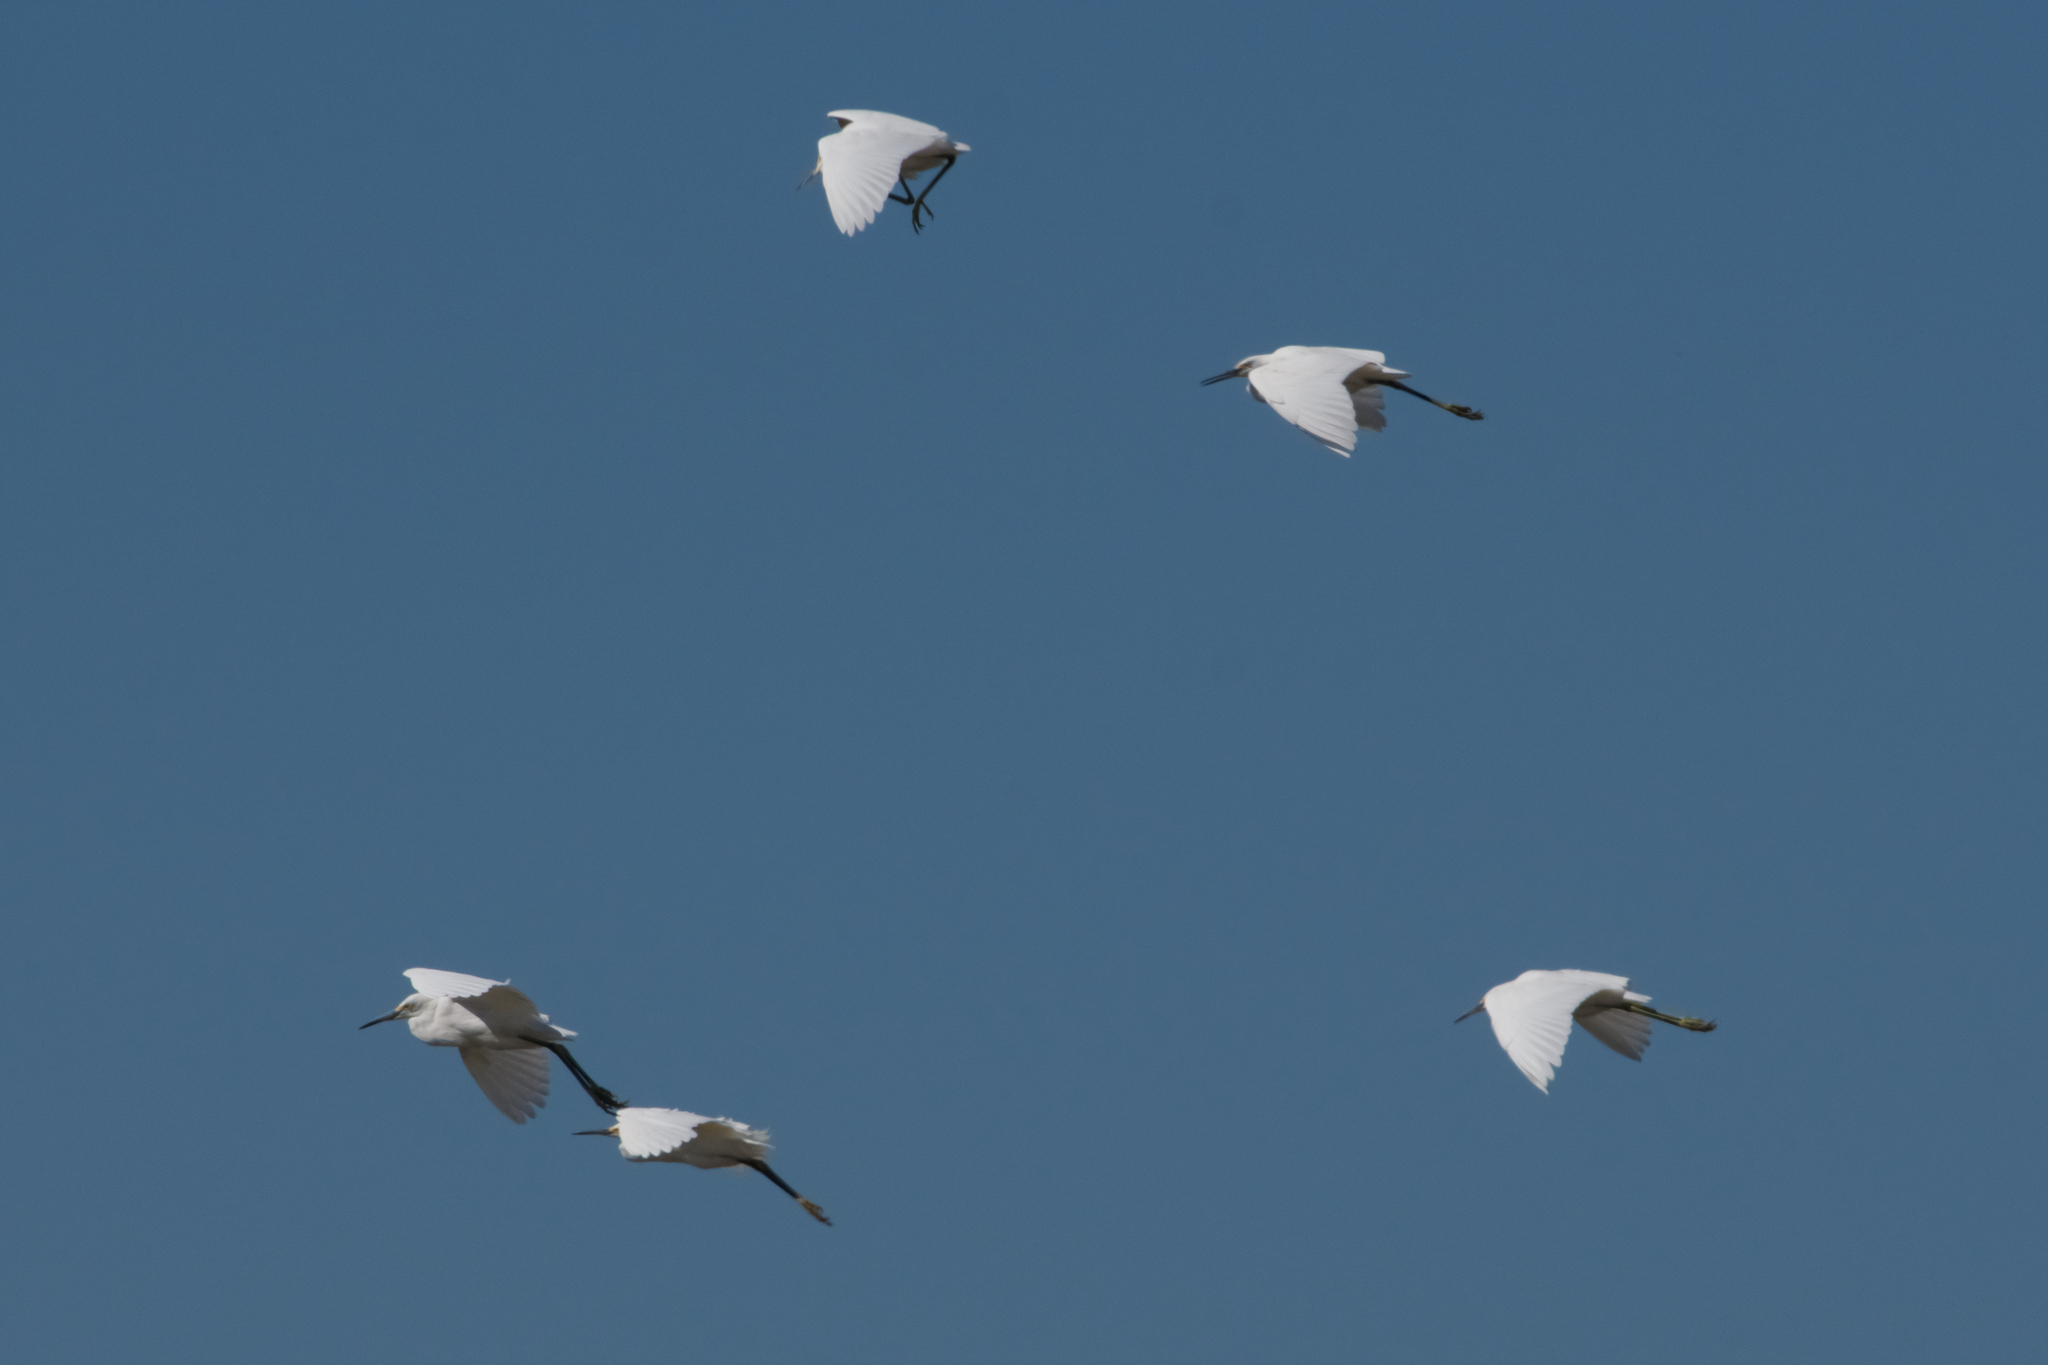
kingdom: Animalia
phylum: Chordata
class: Aves
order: Pelecaniformes
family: Ardeidae
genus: Egretta
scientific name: Egretta thula
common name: Snowy egret
